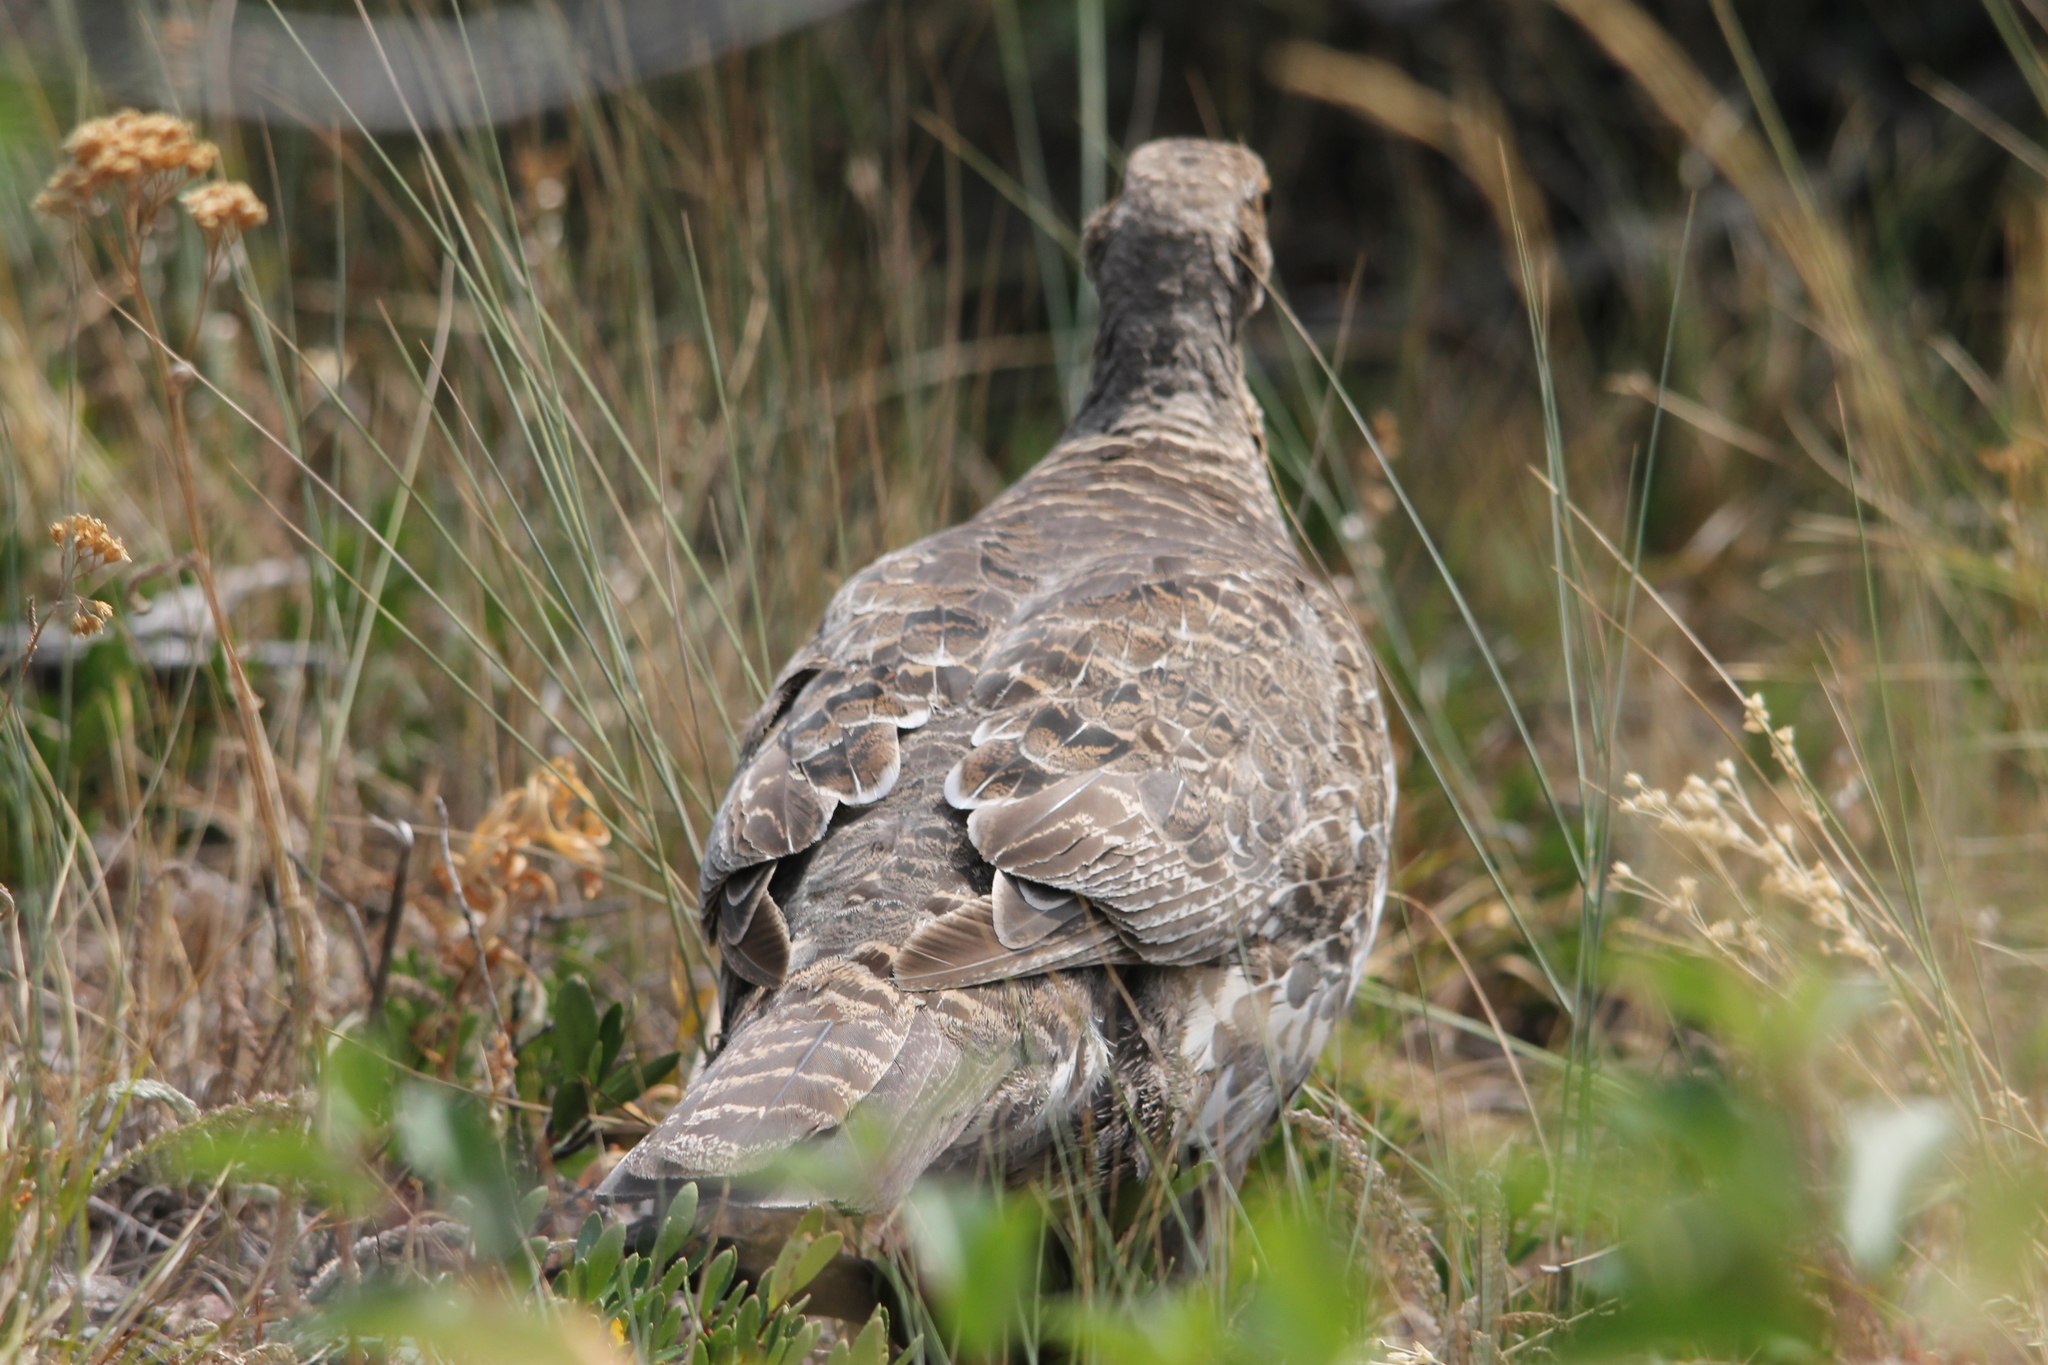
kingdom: Animalia
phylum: Chordata
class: Aves
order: Galliformes
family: Phasianidae
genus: Dendragapus
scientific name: Dendragapus obscurus
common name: Dusky grouse
